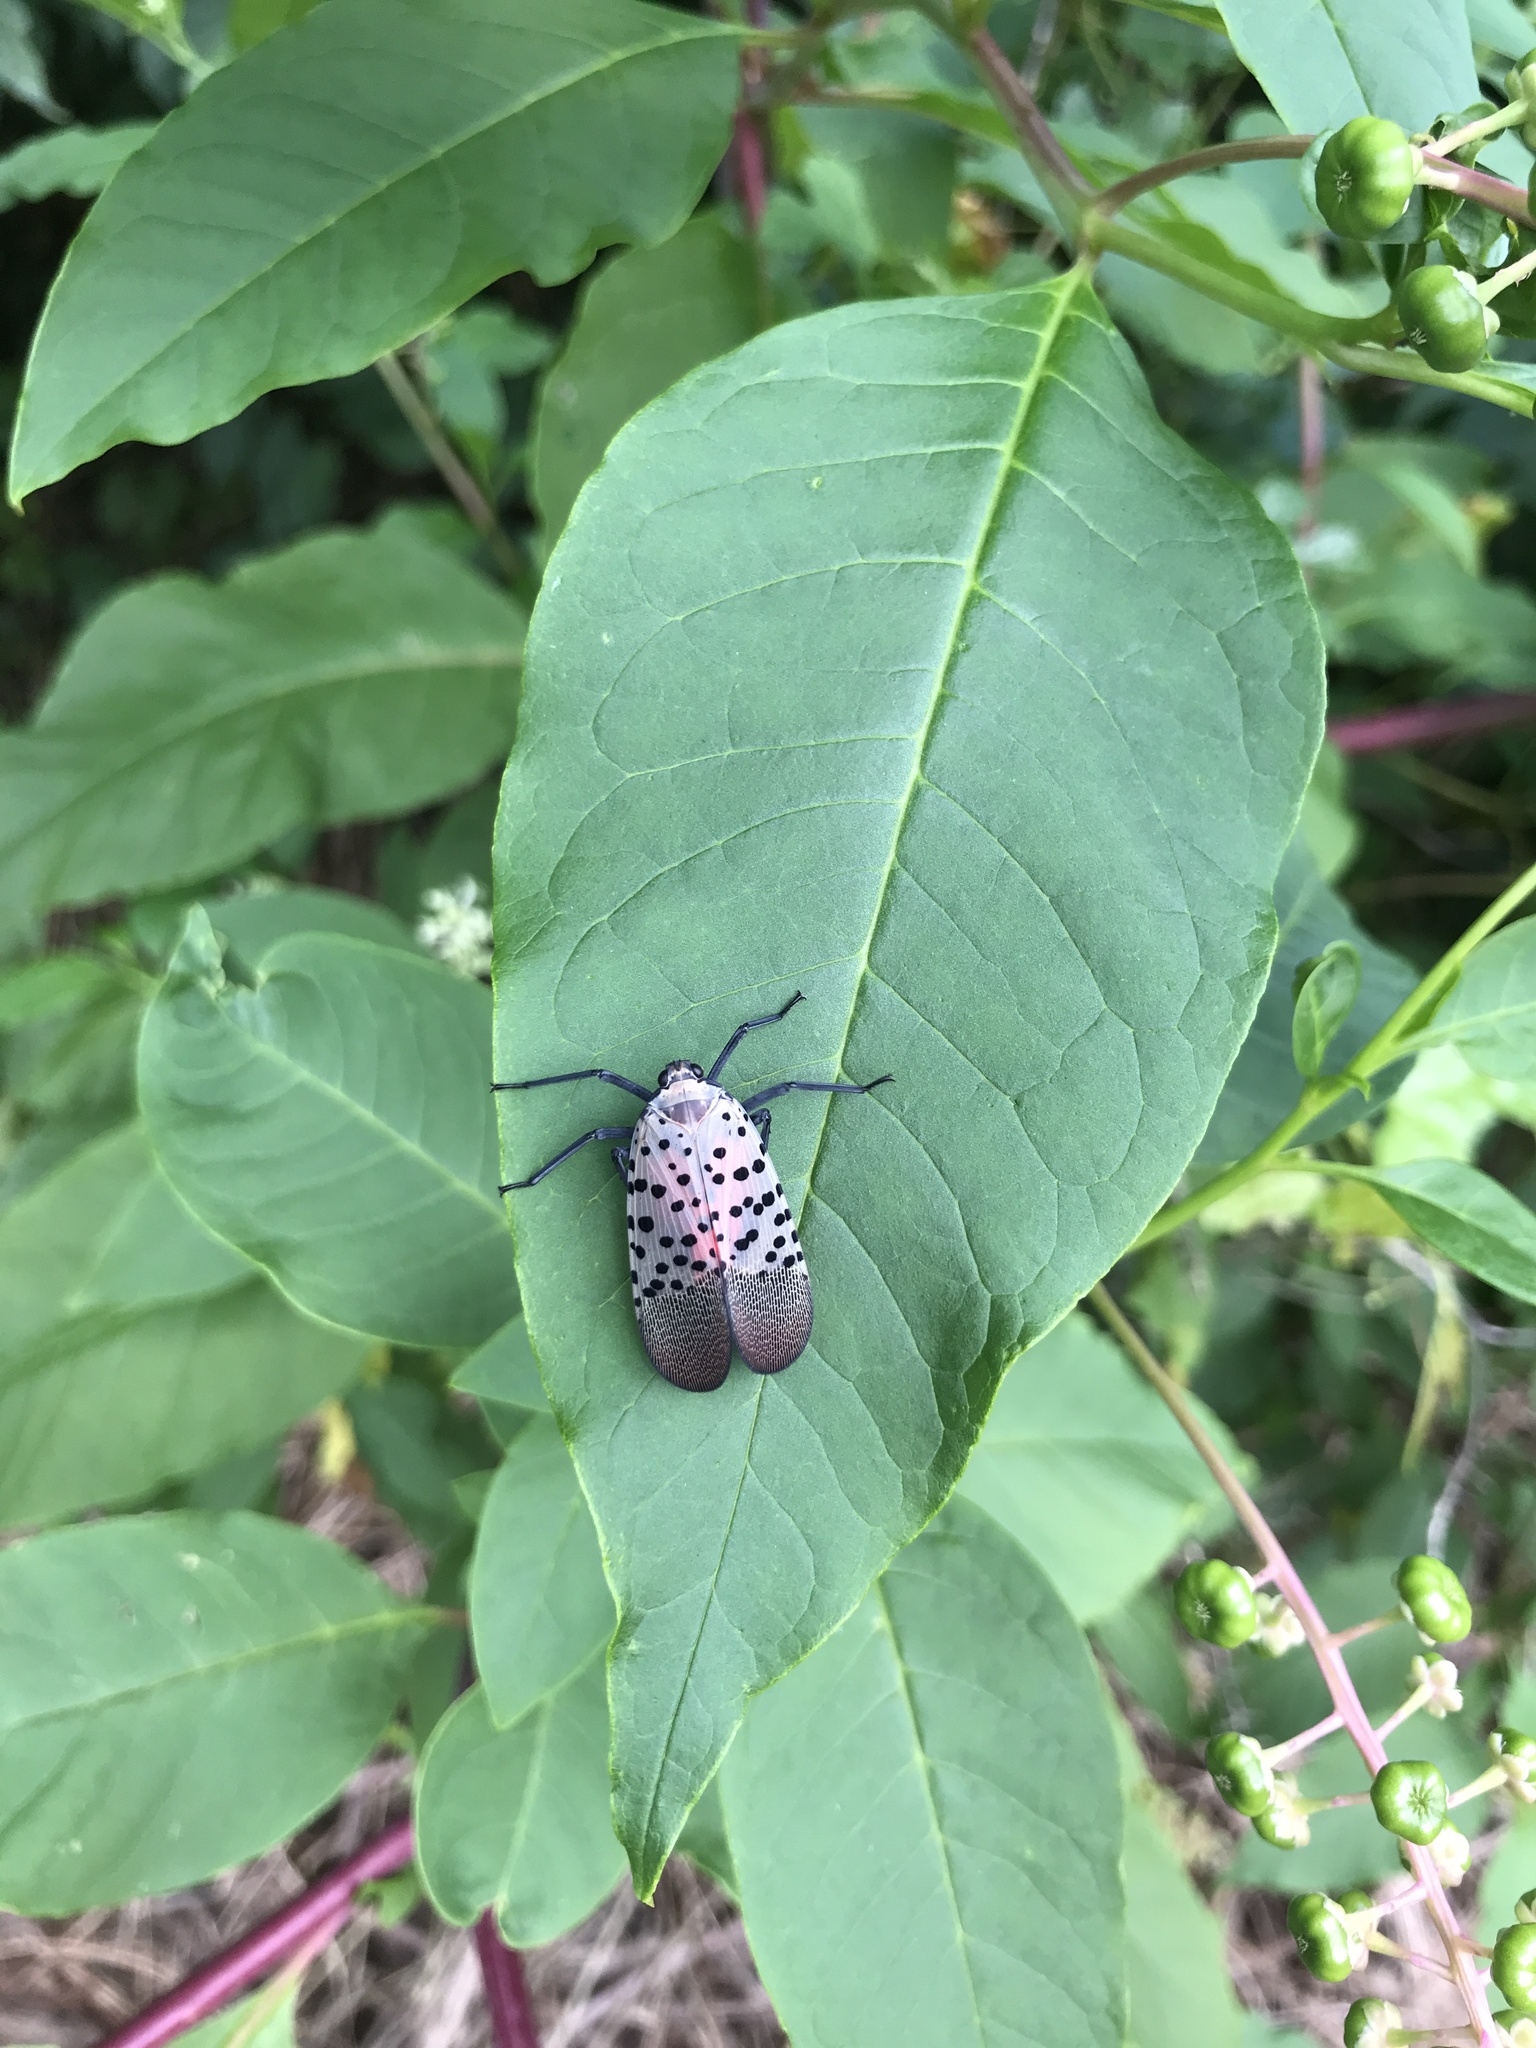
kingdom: Animalia
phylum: Arthropoda
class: Insecta
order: Hemiptera
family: Fulgoridae
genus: Lycorma
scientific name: Lycorma delicatula
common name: Spotted lanternfly
